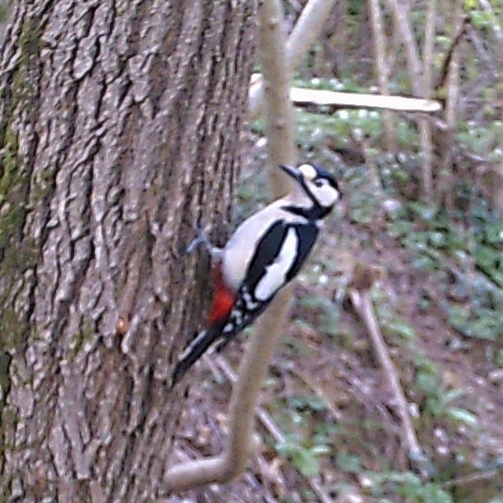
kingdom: Animalia
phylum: Chordata
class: Aves
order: Piciformes
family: Picidae
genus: Dendrocopos
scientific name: Dendrocopos major
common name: Great spotted woodpecker
